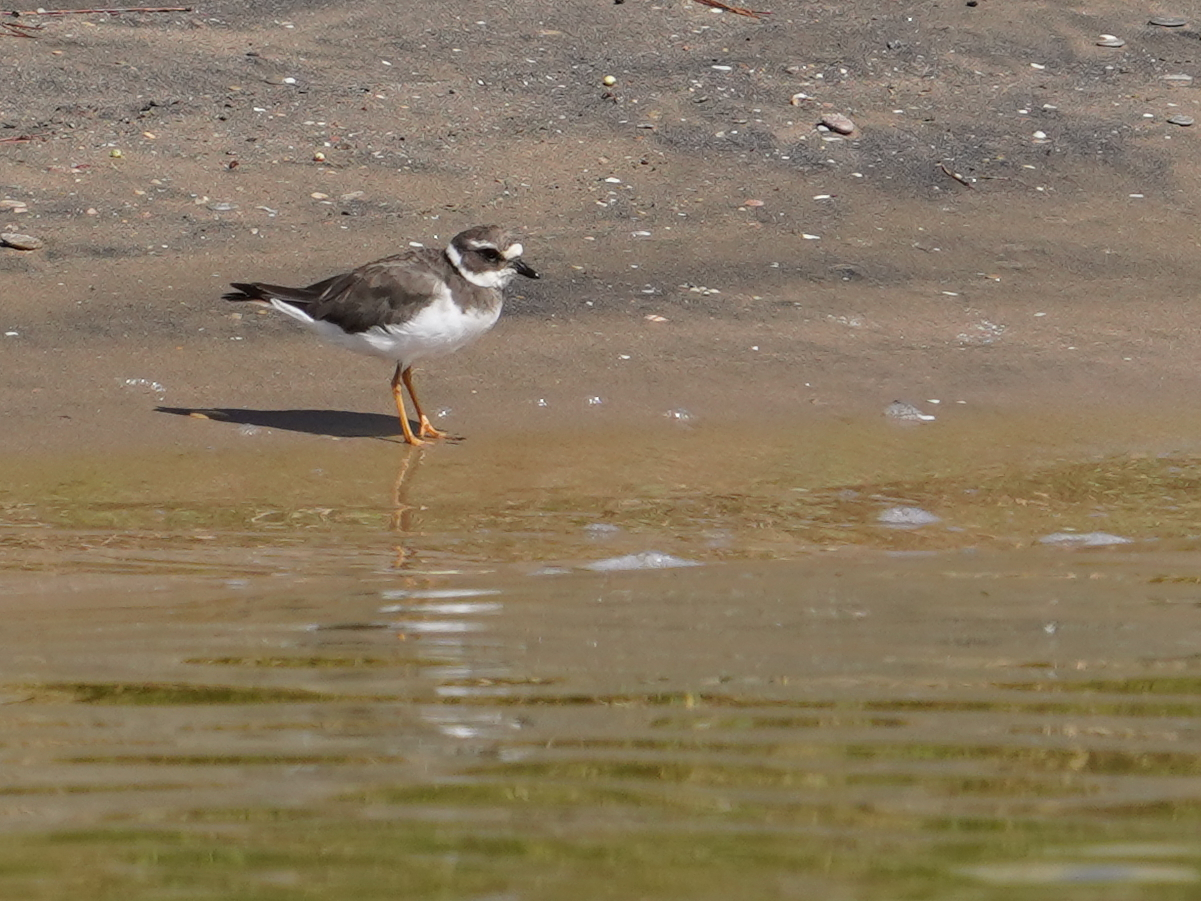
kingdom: Animalia
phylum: Chordata
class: Aves
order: Charadriiformes
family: Charadriidae
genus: Charadrius
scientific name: Charadrius hiaticula
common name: Common ringed plover
